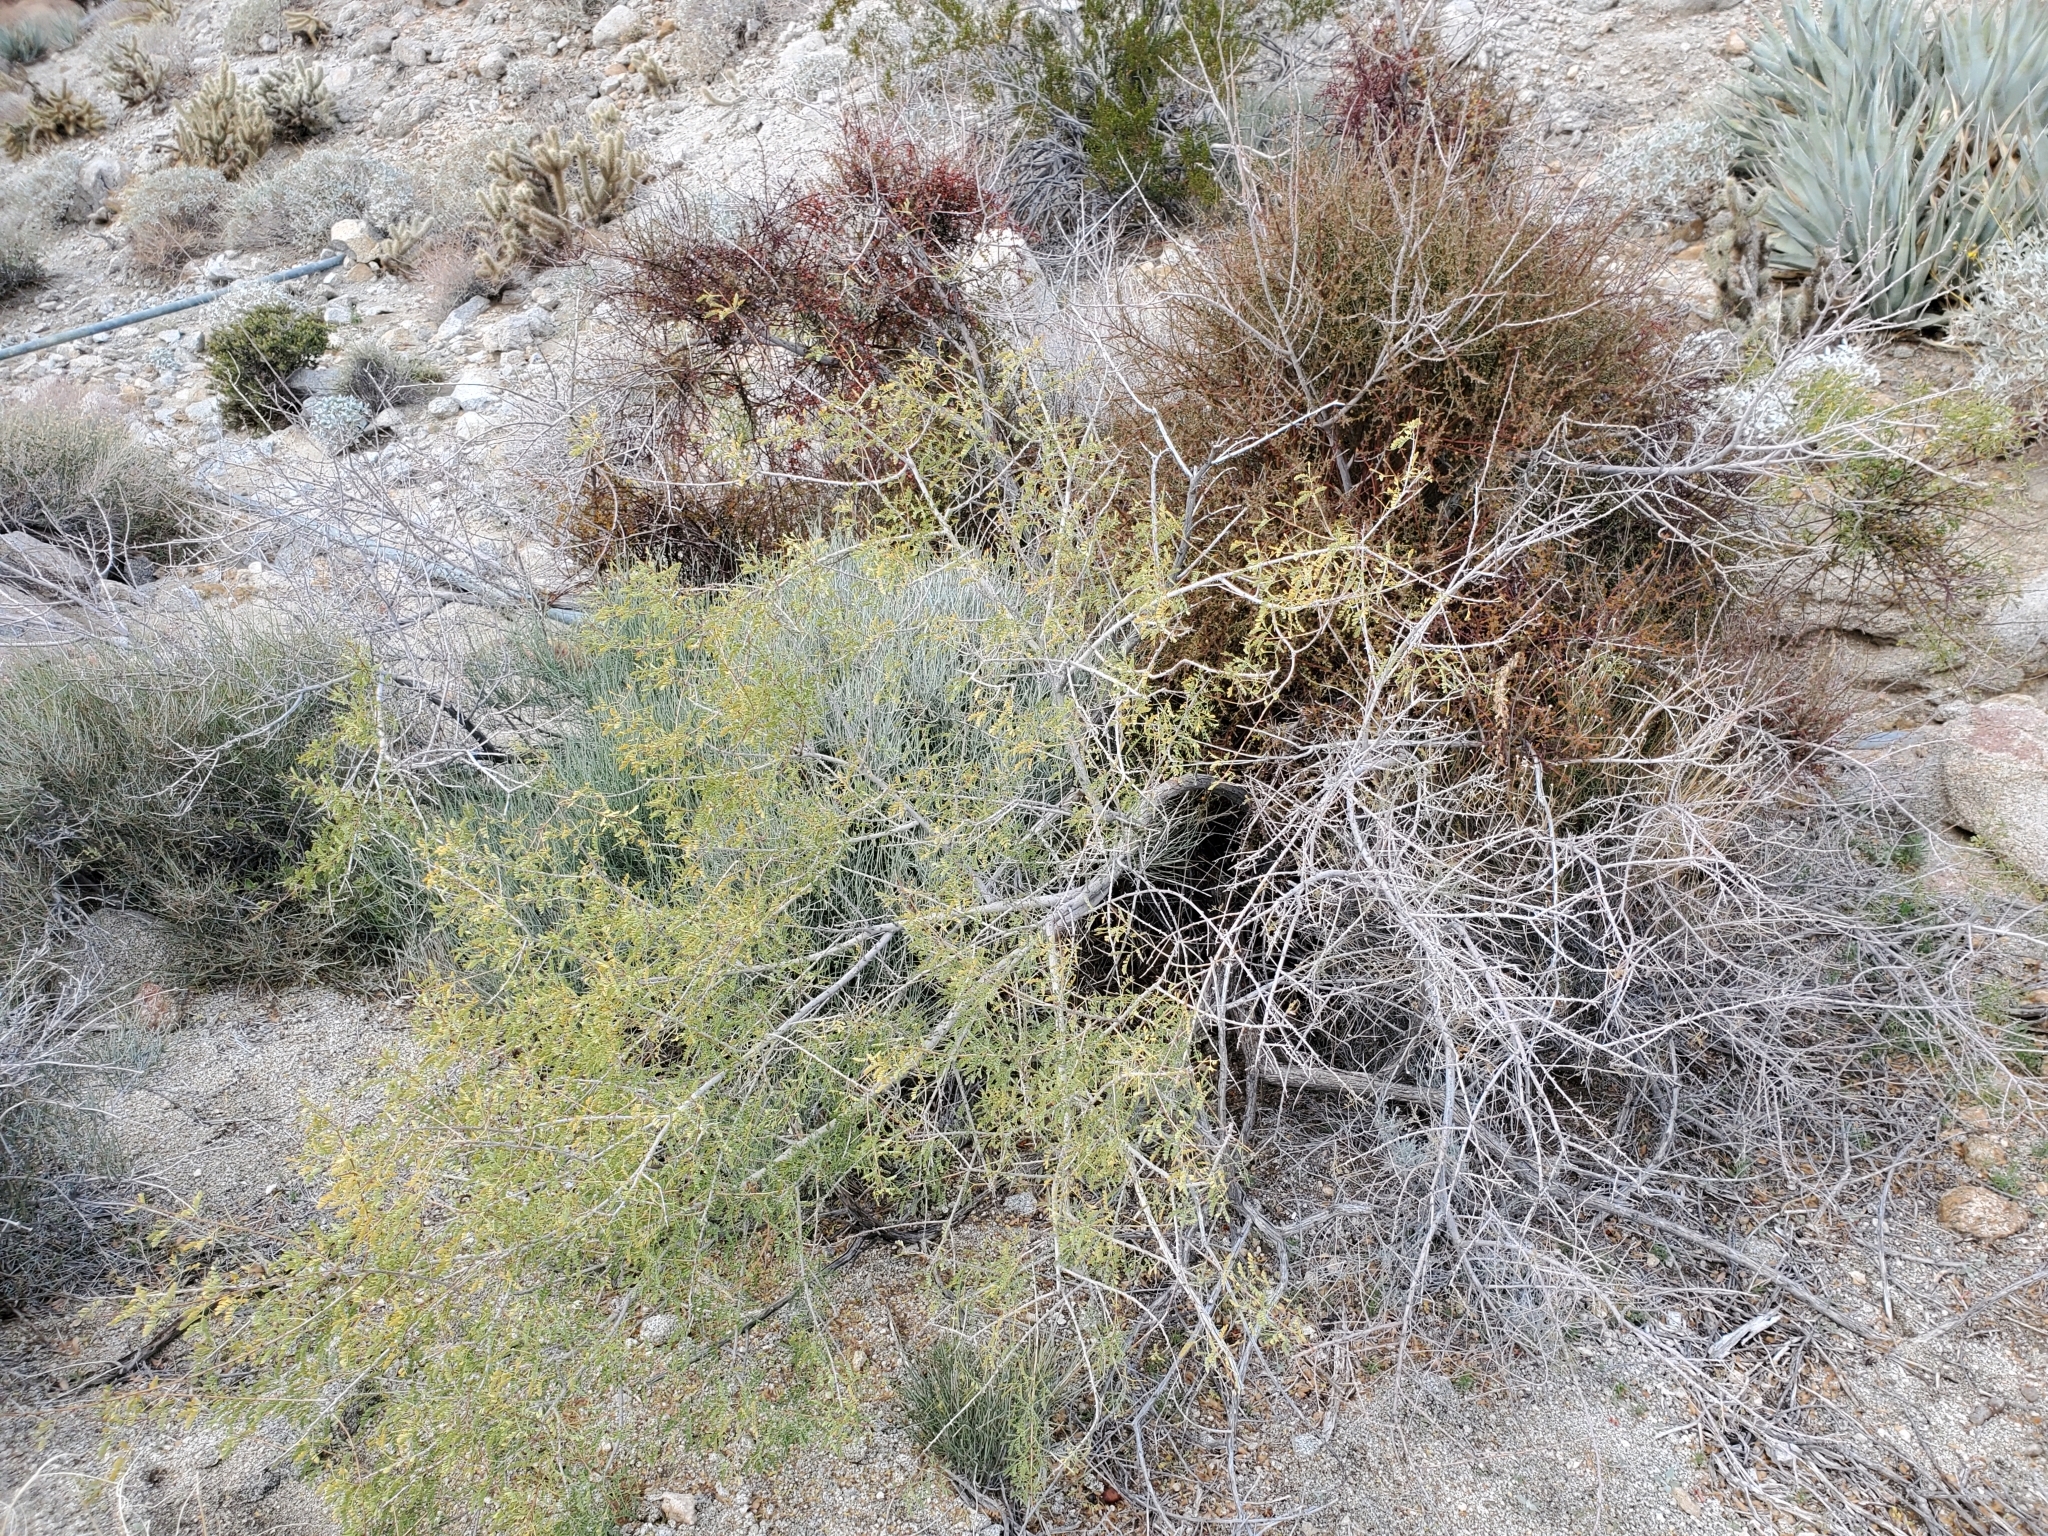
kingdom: Plantae
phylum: Tracheophyta
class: Magnoliopsida
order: Santalales
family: Viscaceae
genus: Phoradendron
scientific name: Phoradendron californicum
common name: Acacia mistletoe
